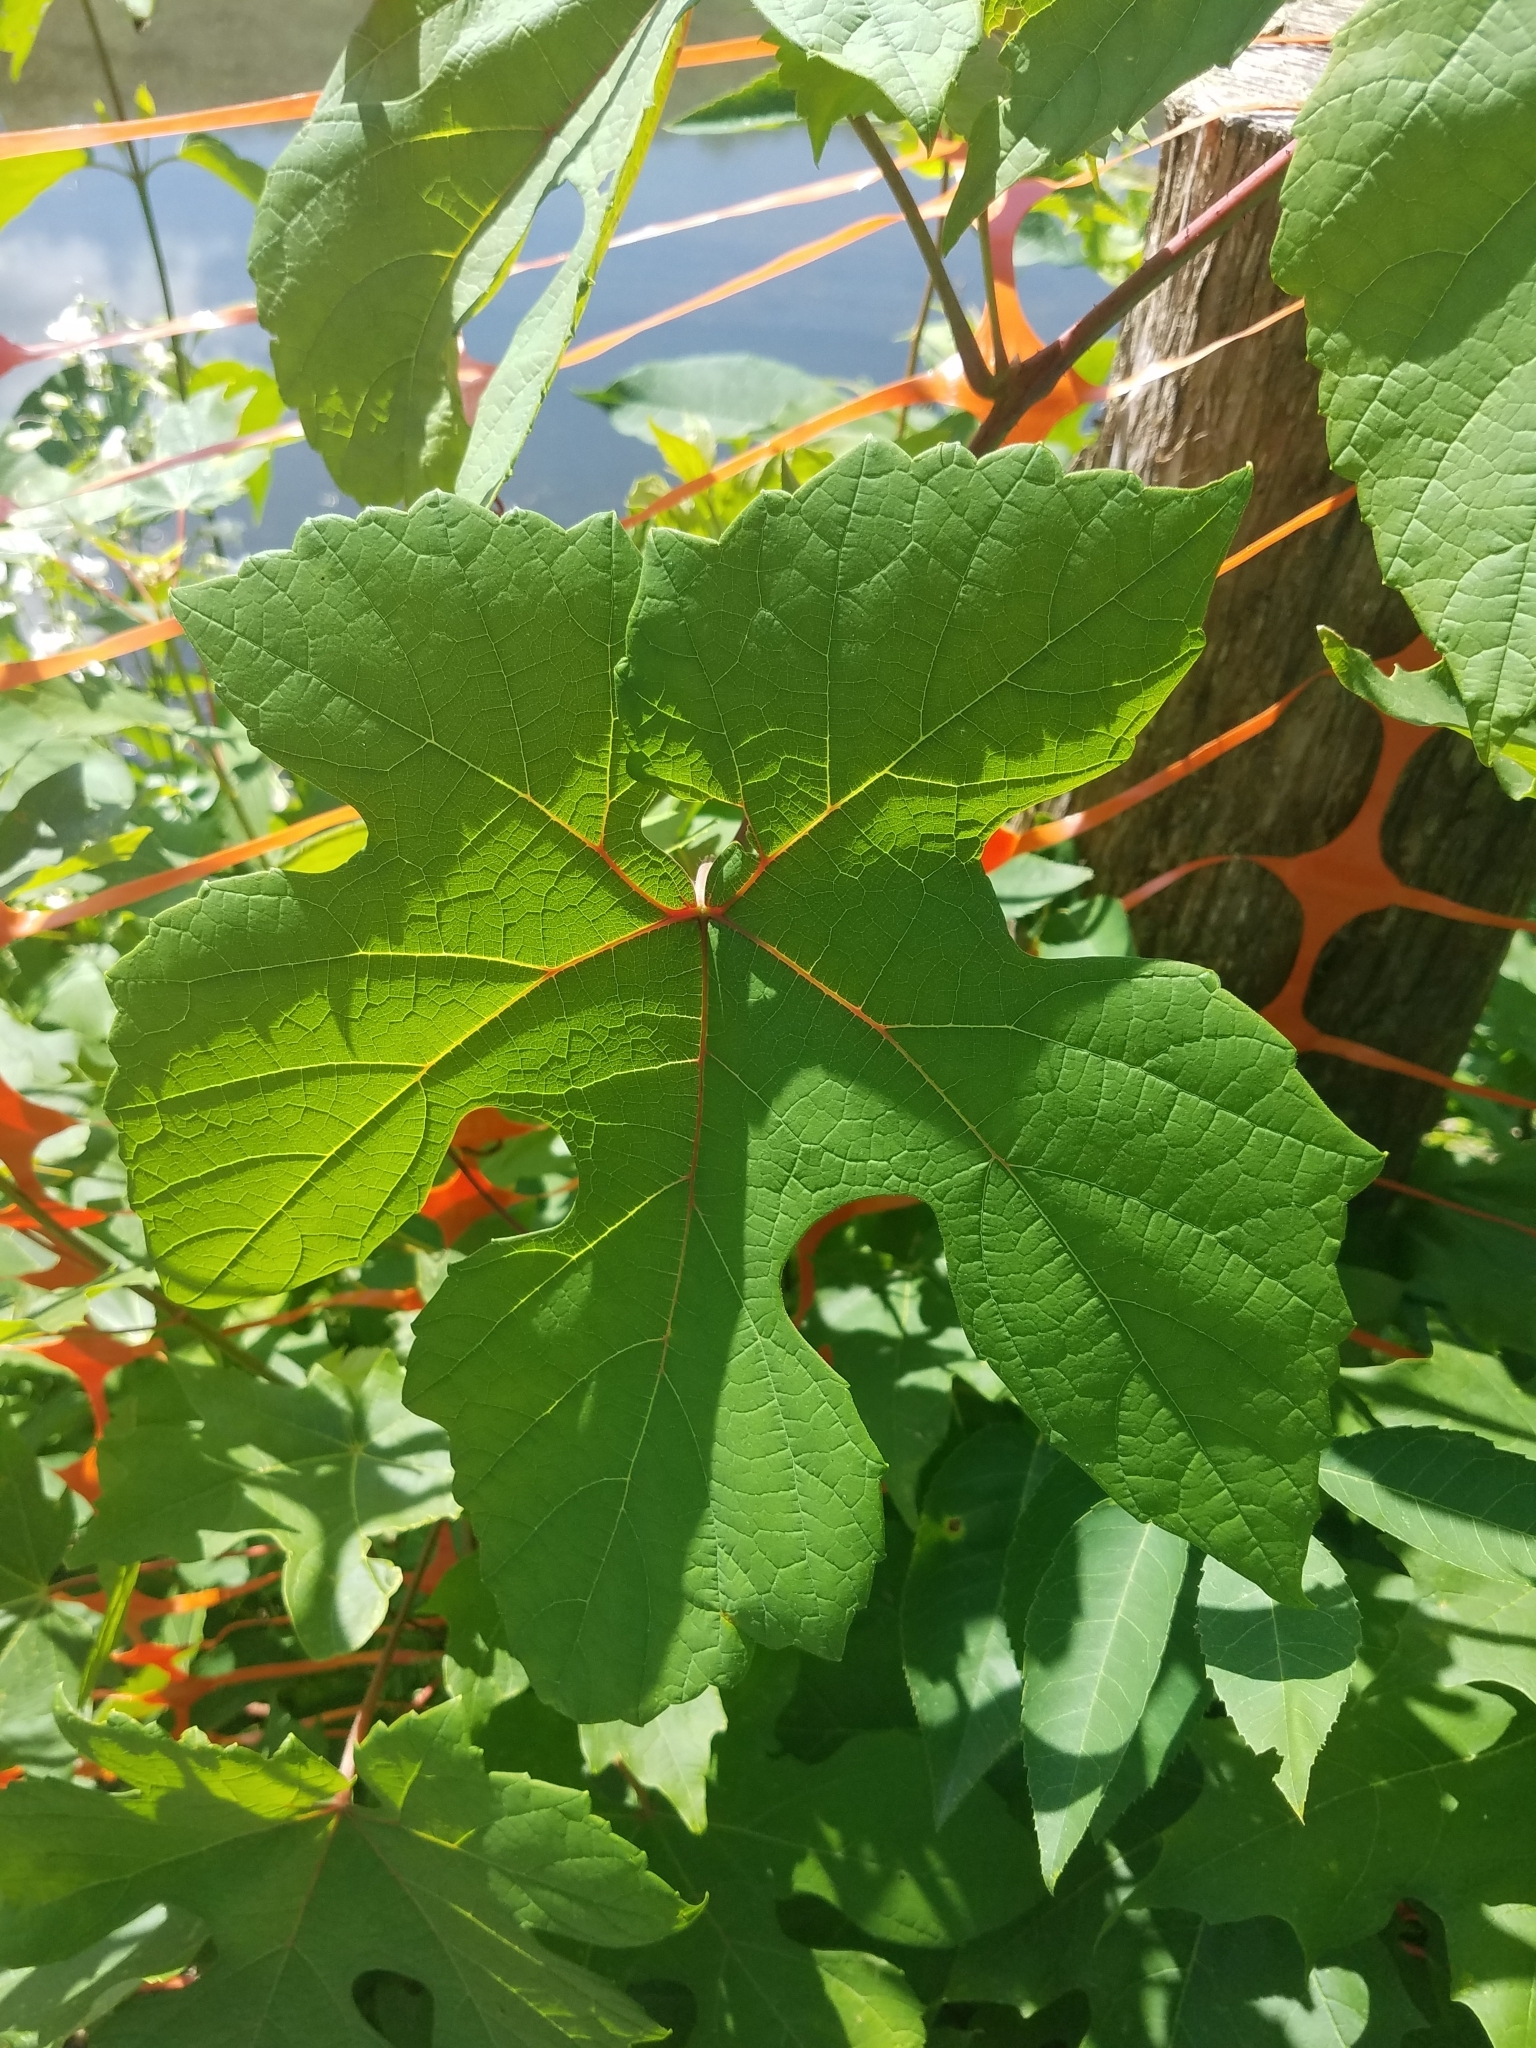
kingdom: Plantae
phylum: Tracheophyta
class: Magnoliopsida
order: Vitales
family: Vitaceae
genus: Vitis
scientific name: Vitis aestivalis
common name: Pigeon grape
